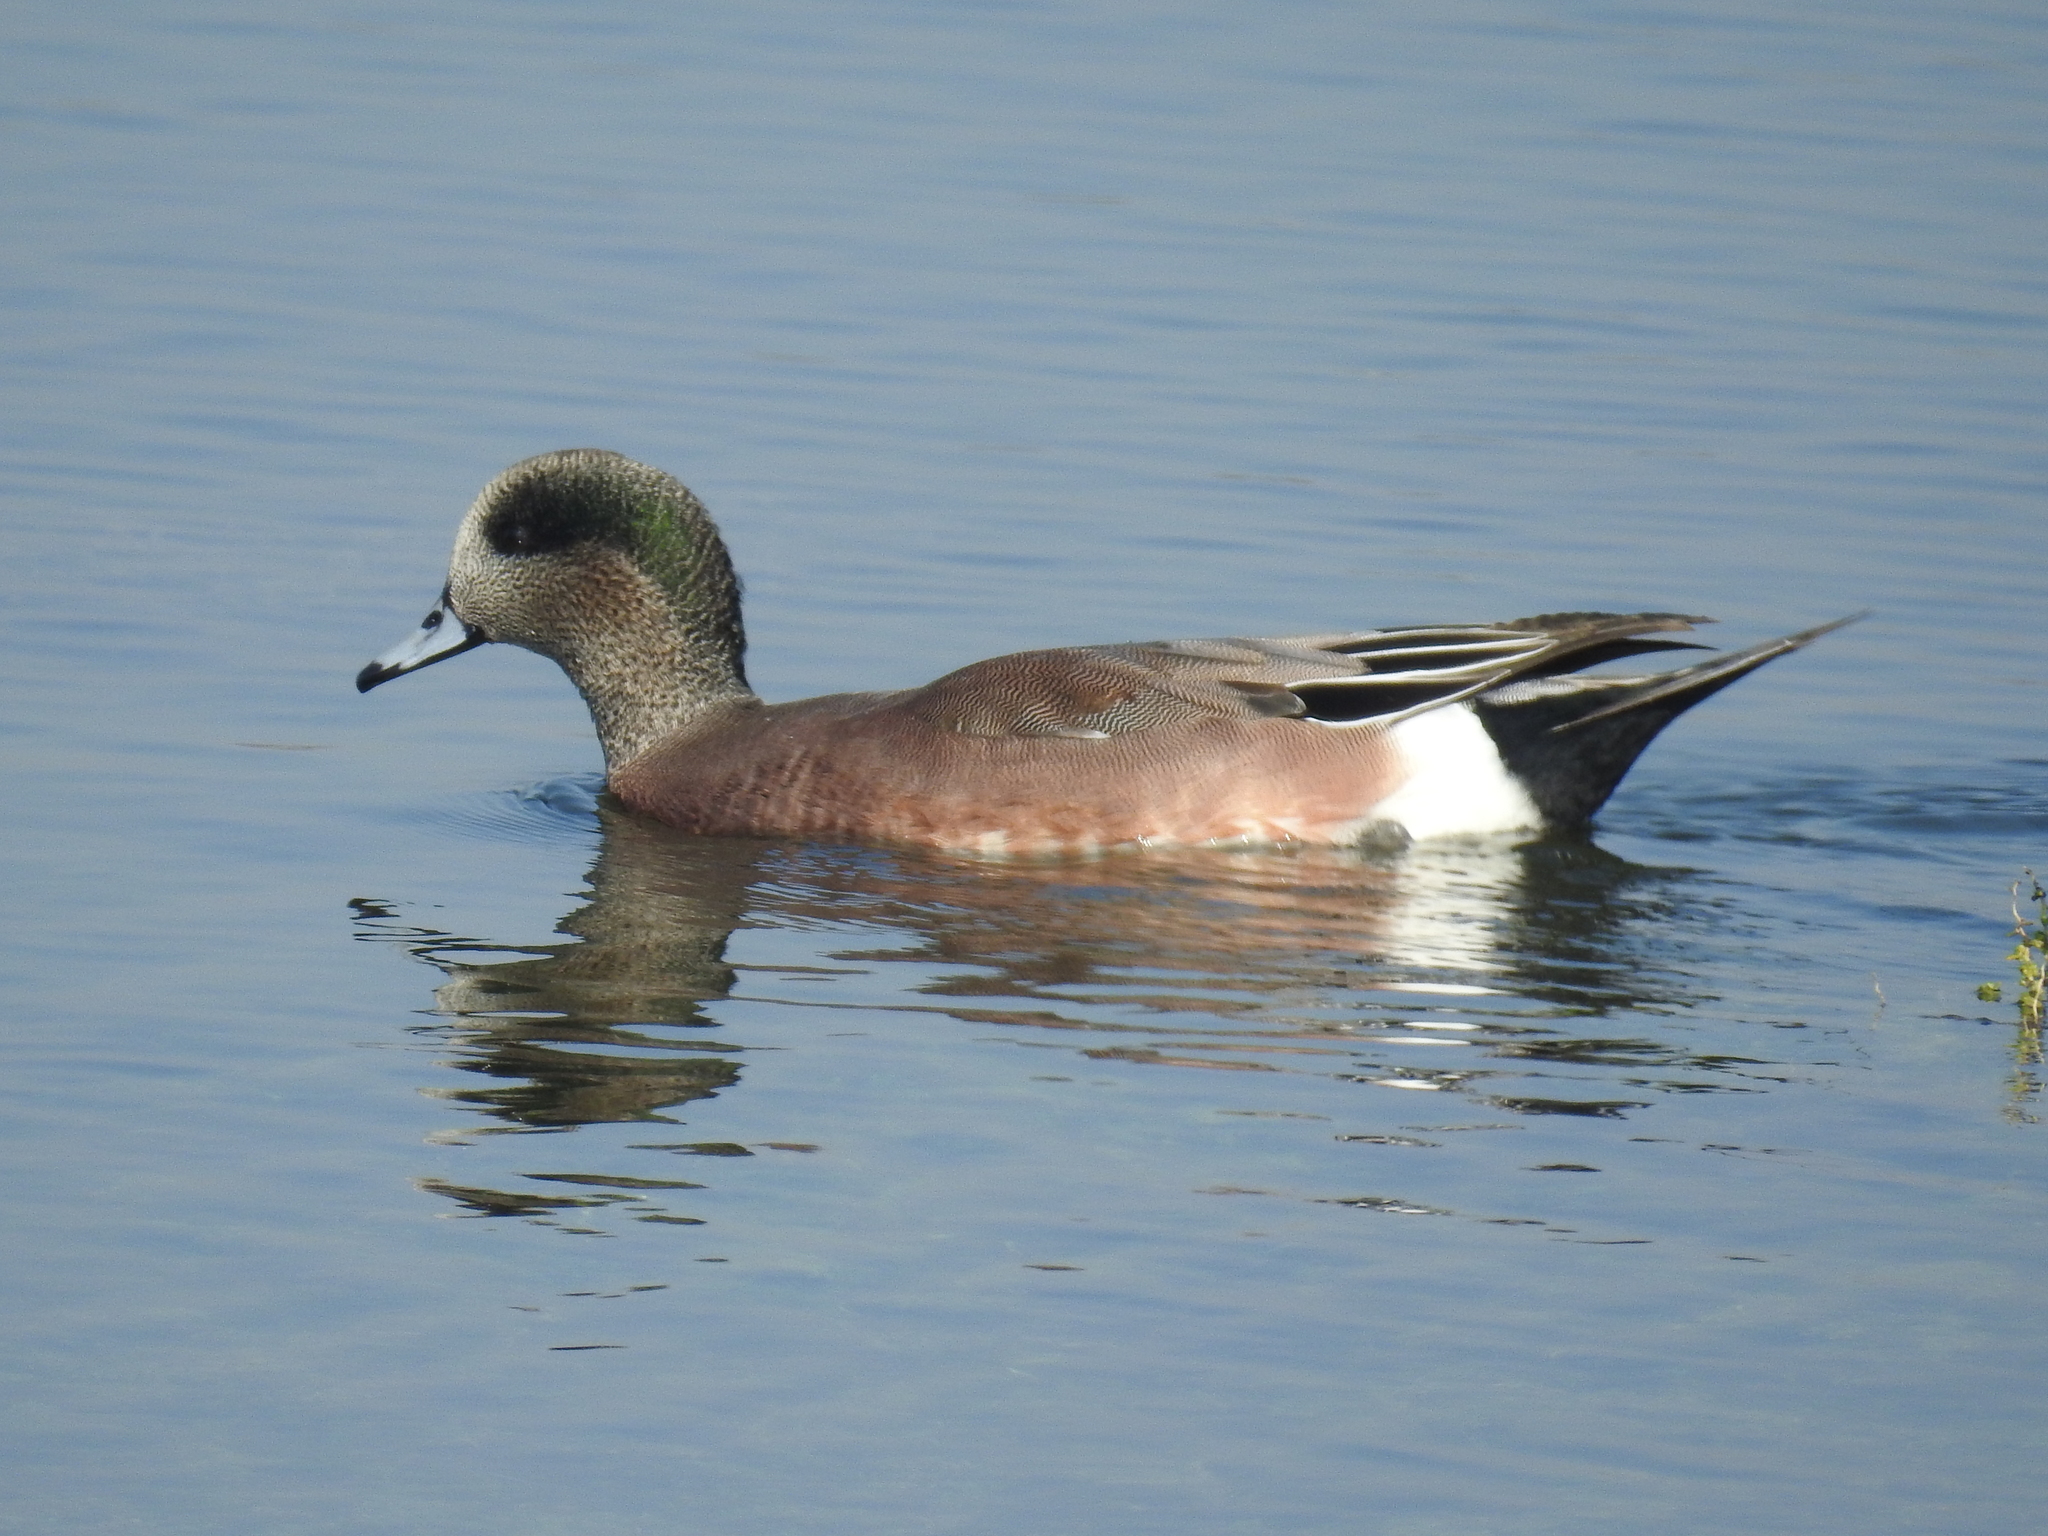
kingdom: Animalia
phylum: Chordata
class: Aves
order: Anseriformes
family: Anatidae
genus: Mareca
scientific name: Mareca americana
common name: American wigeon
